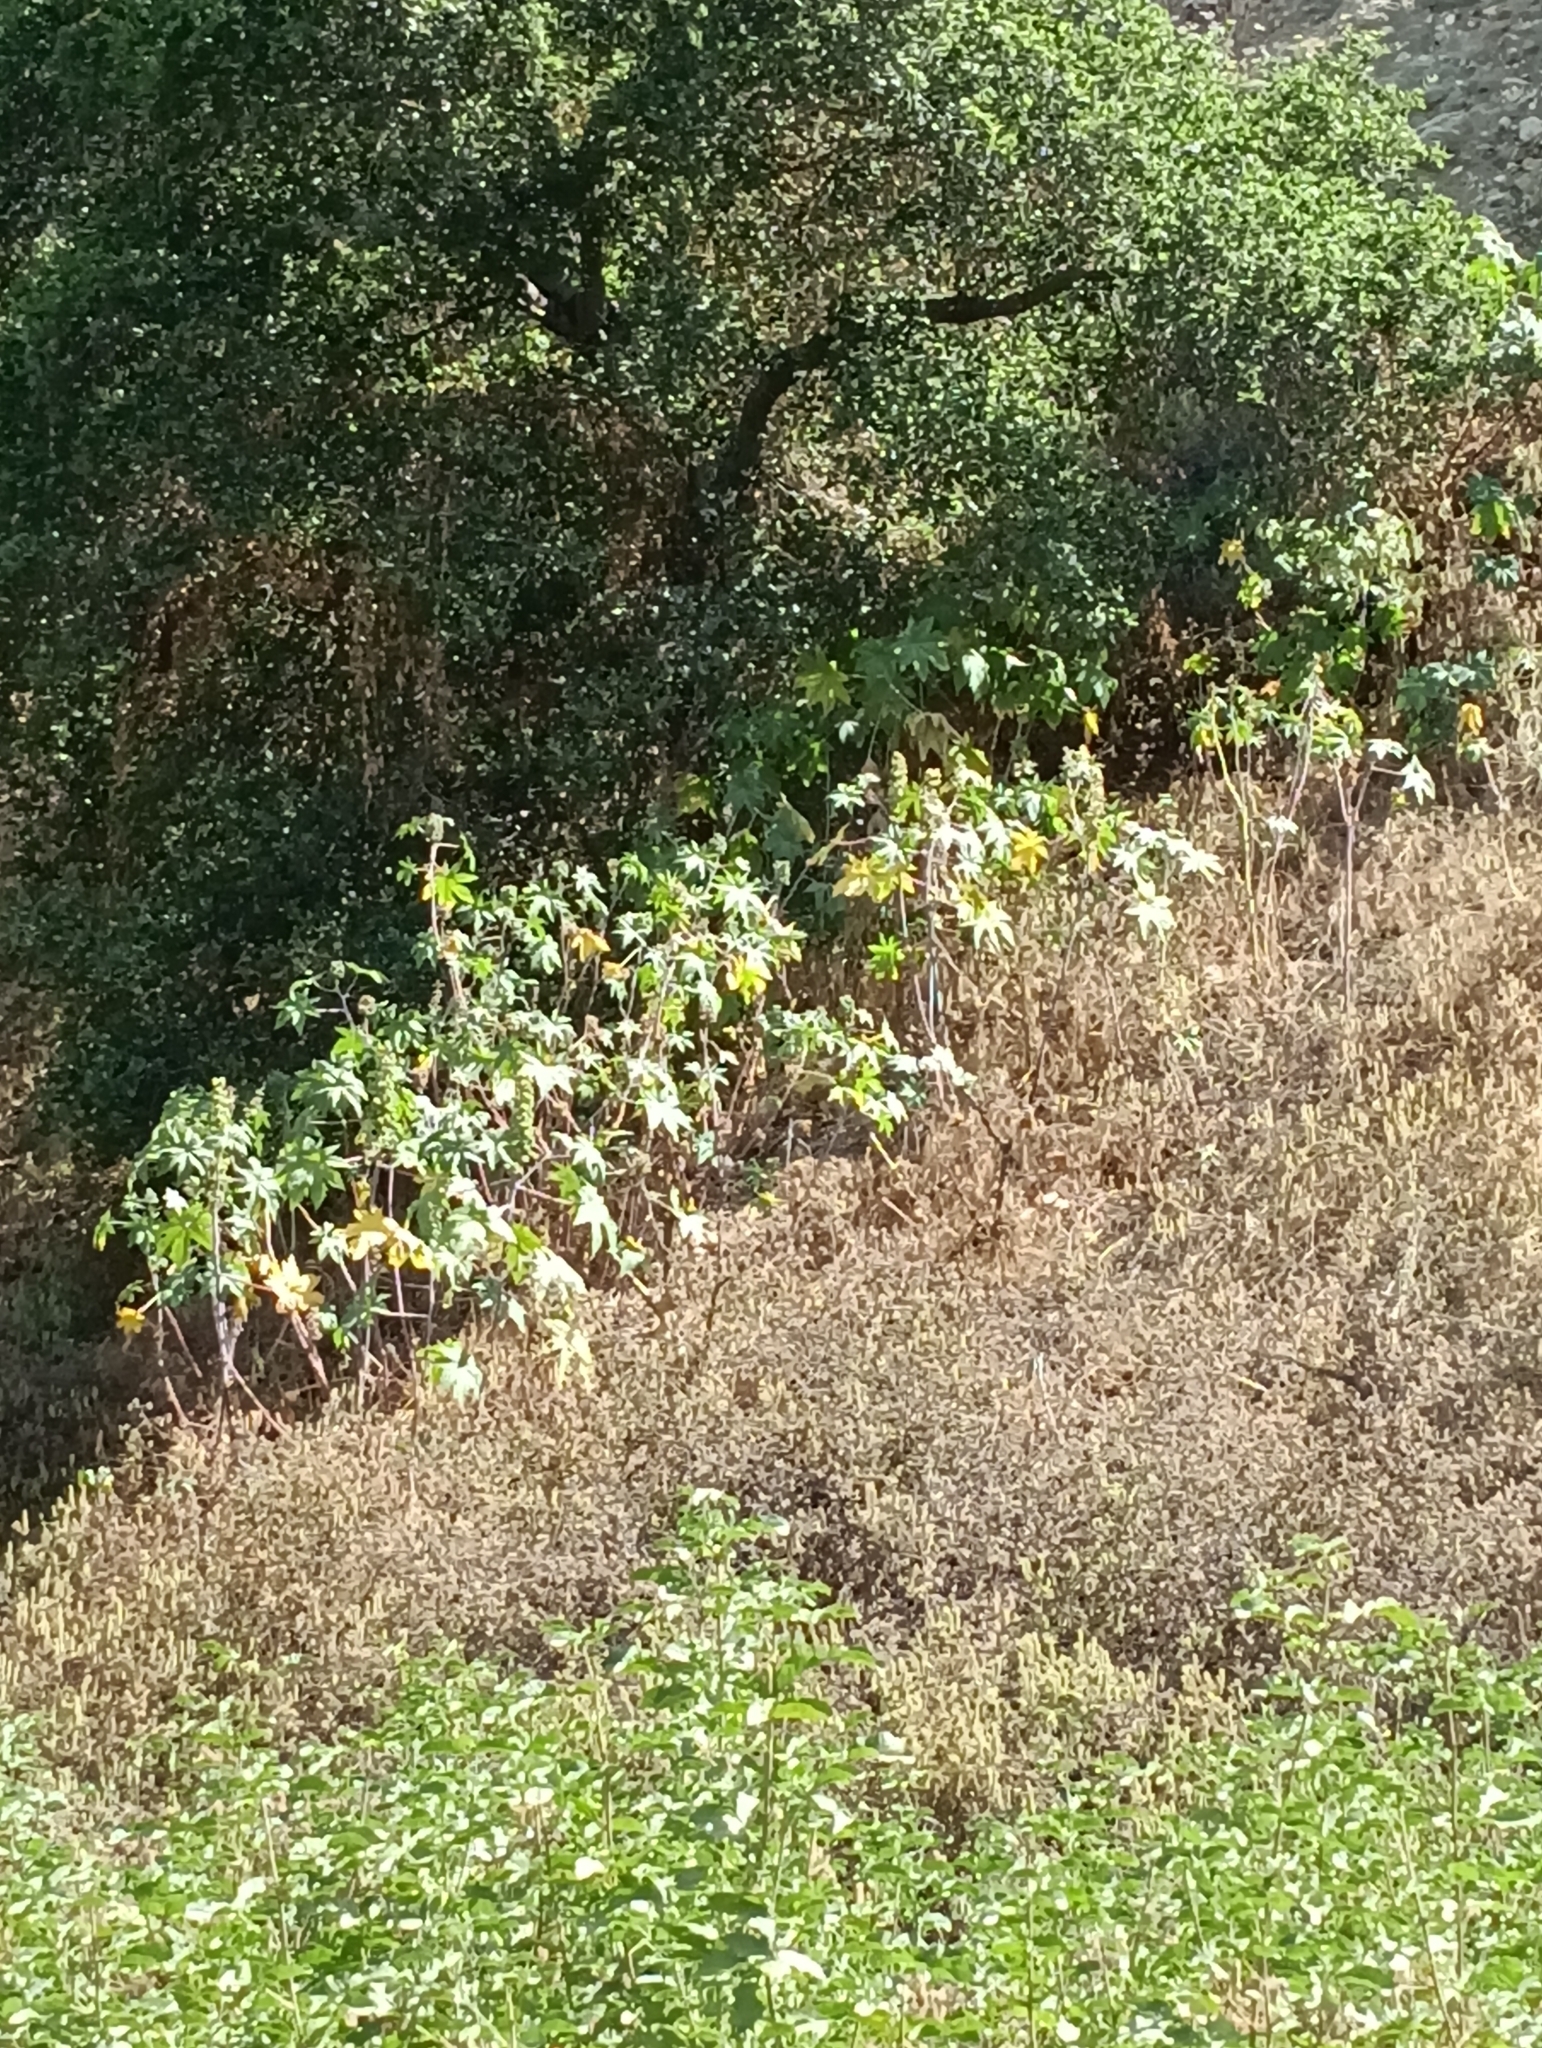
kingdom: Plantae
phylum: Tracheophyta
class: Magnoliopsida
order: Malpighiales
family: Euphorbiaceae
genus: Ricinus
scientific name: Ricinus communis
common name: Castor-oil-plant
